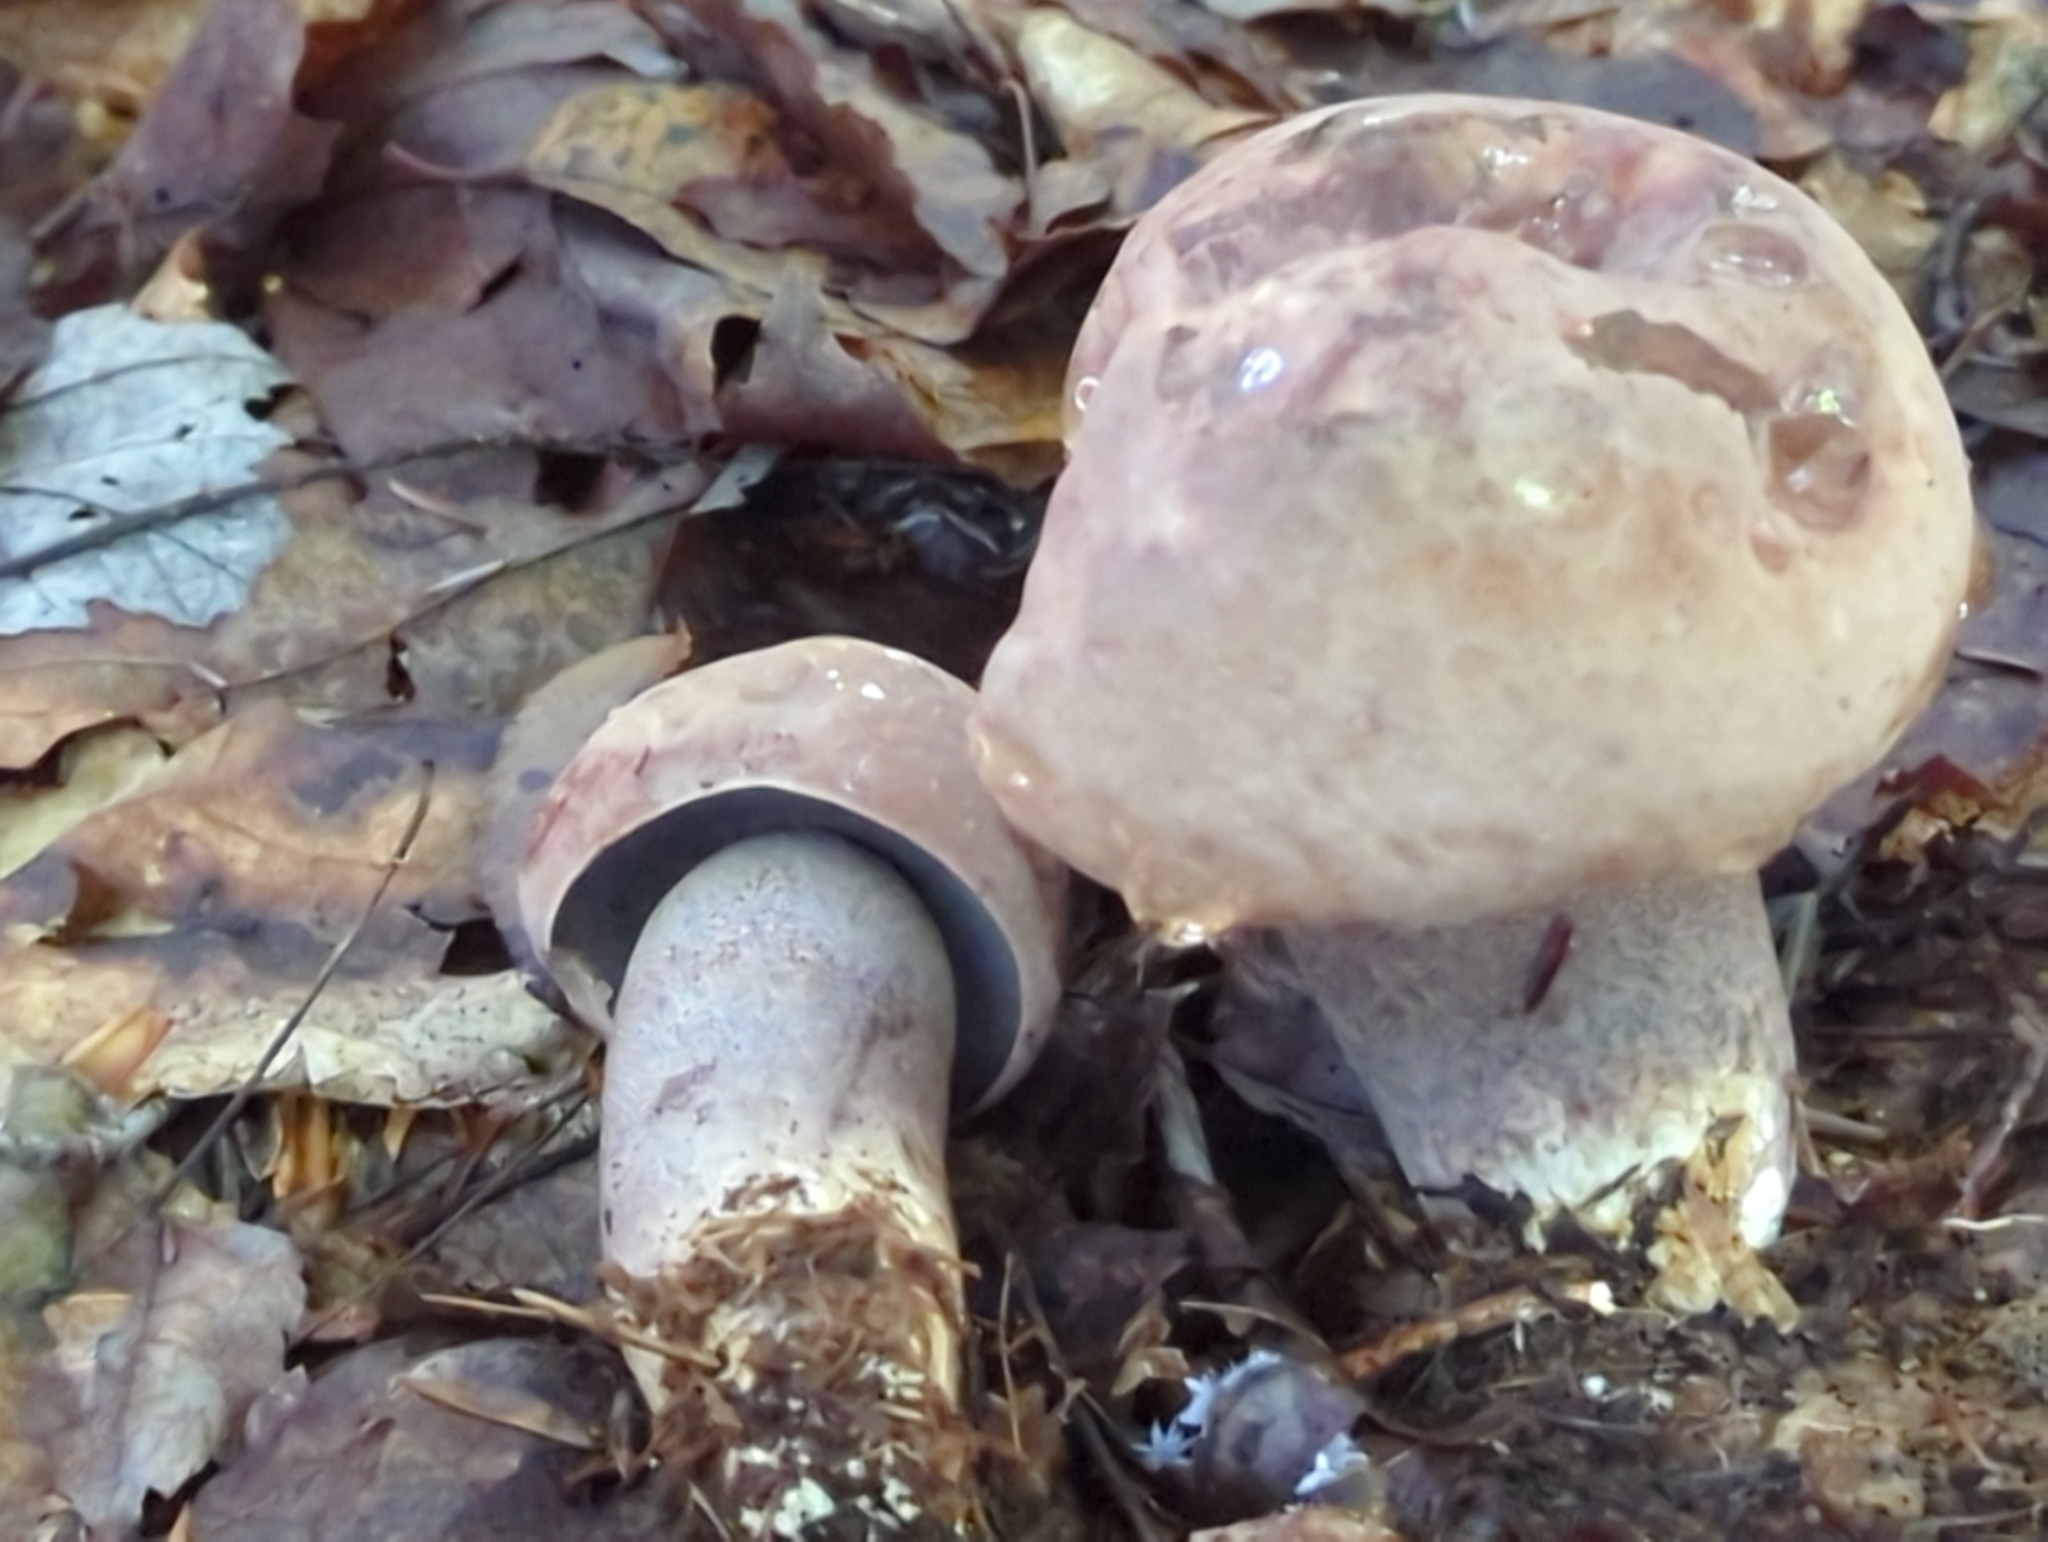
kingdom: Fungi
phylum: Basidiomycota
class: Agaricomycetes
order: Boletales
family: Boletaceae
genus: Sutorius
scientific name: Sutorius eximius
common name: Lilac-brown bolete
